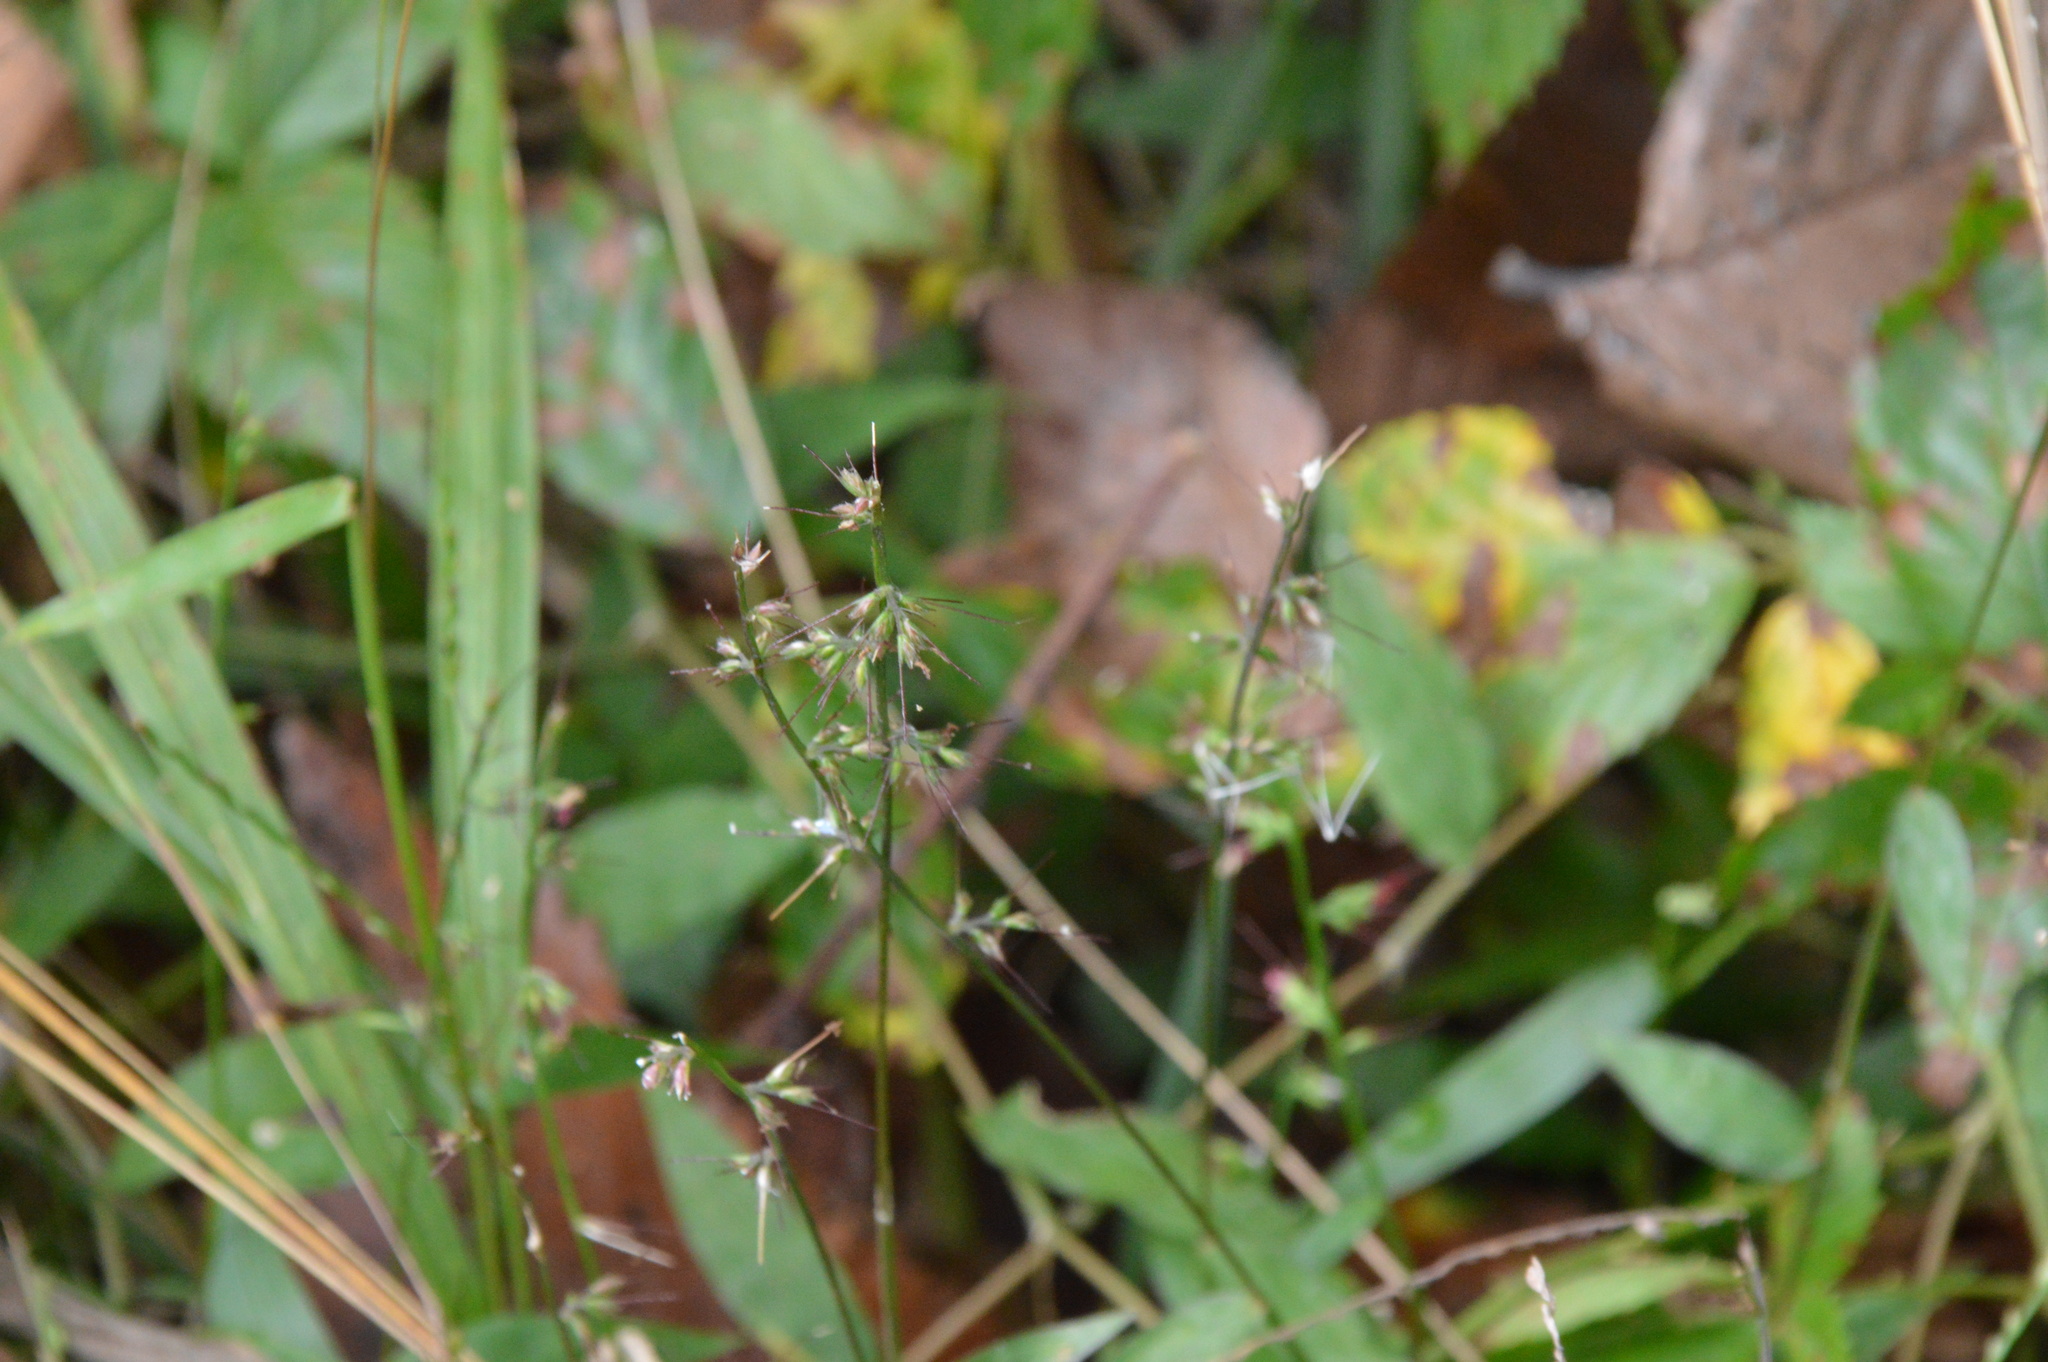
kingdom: Plantae
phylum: Tracheophyta
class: Liliopsida
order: Poales
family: Poaceae
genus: Oplismenus
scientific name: Oplismenus hirtellus
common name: Basketgrass
